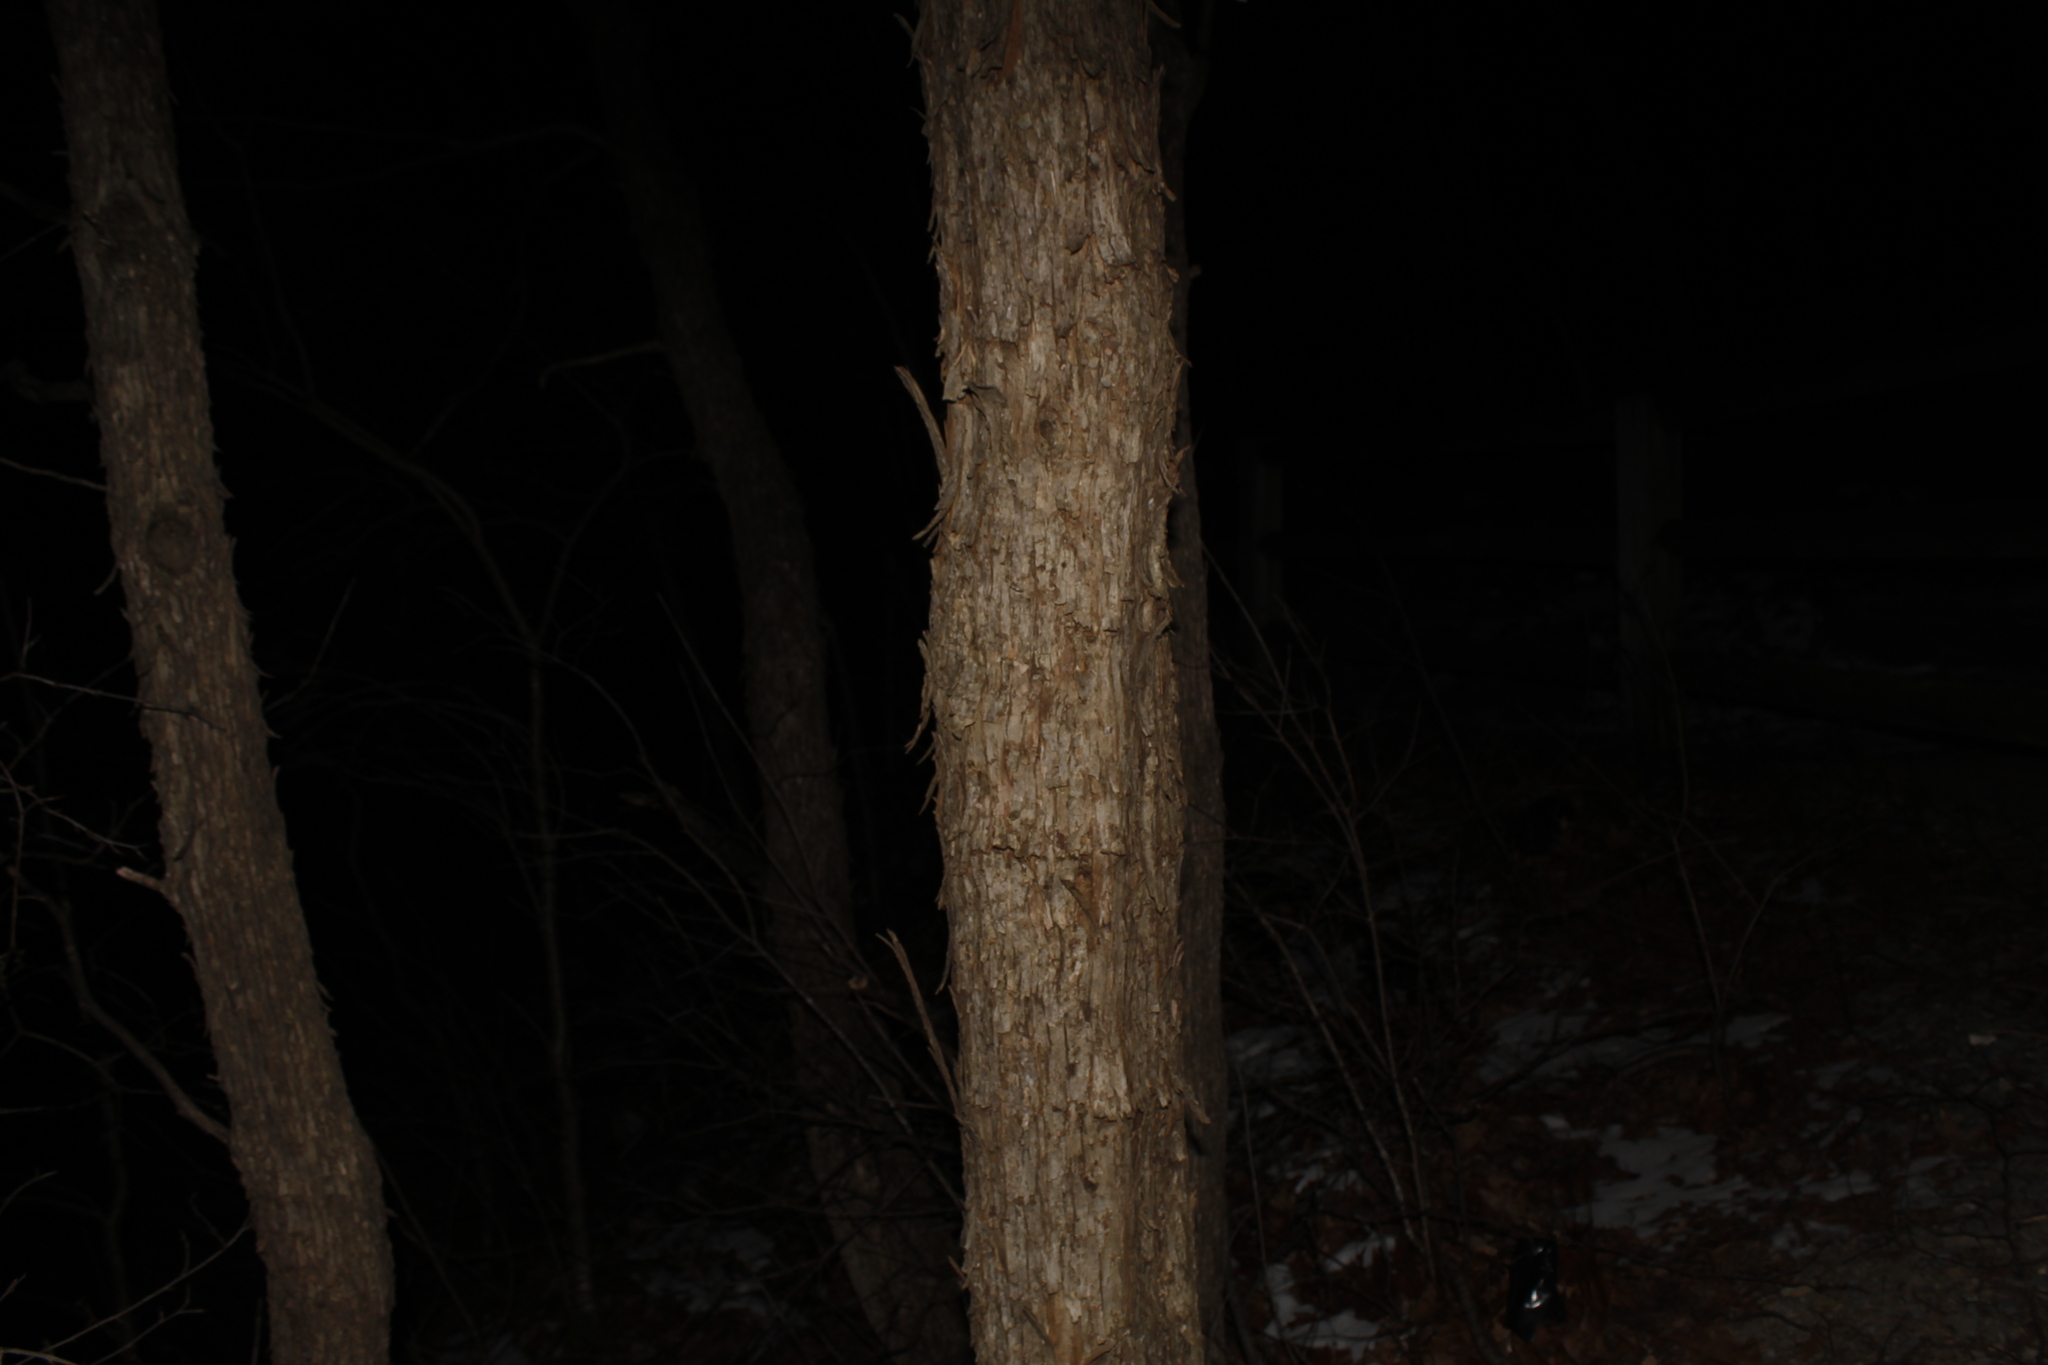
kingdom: Plantae
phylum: Tracheophyta
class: Magnoliopsida
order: Fagales
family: Betulaceae
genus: Ostrya
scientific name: Ostrya virginiana
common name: Ironwood
